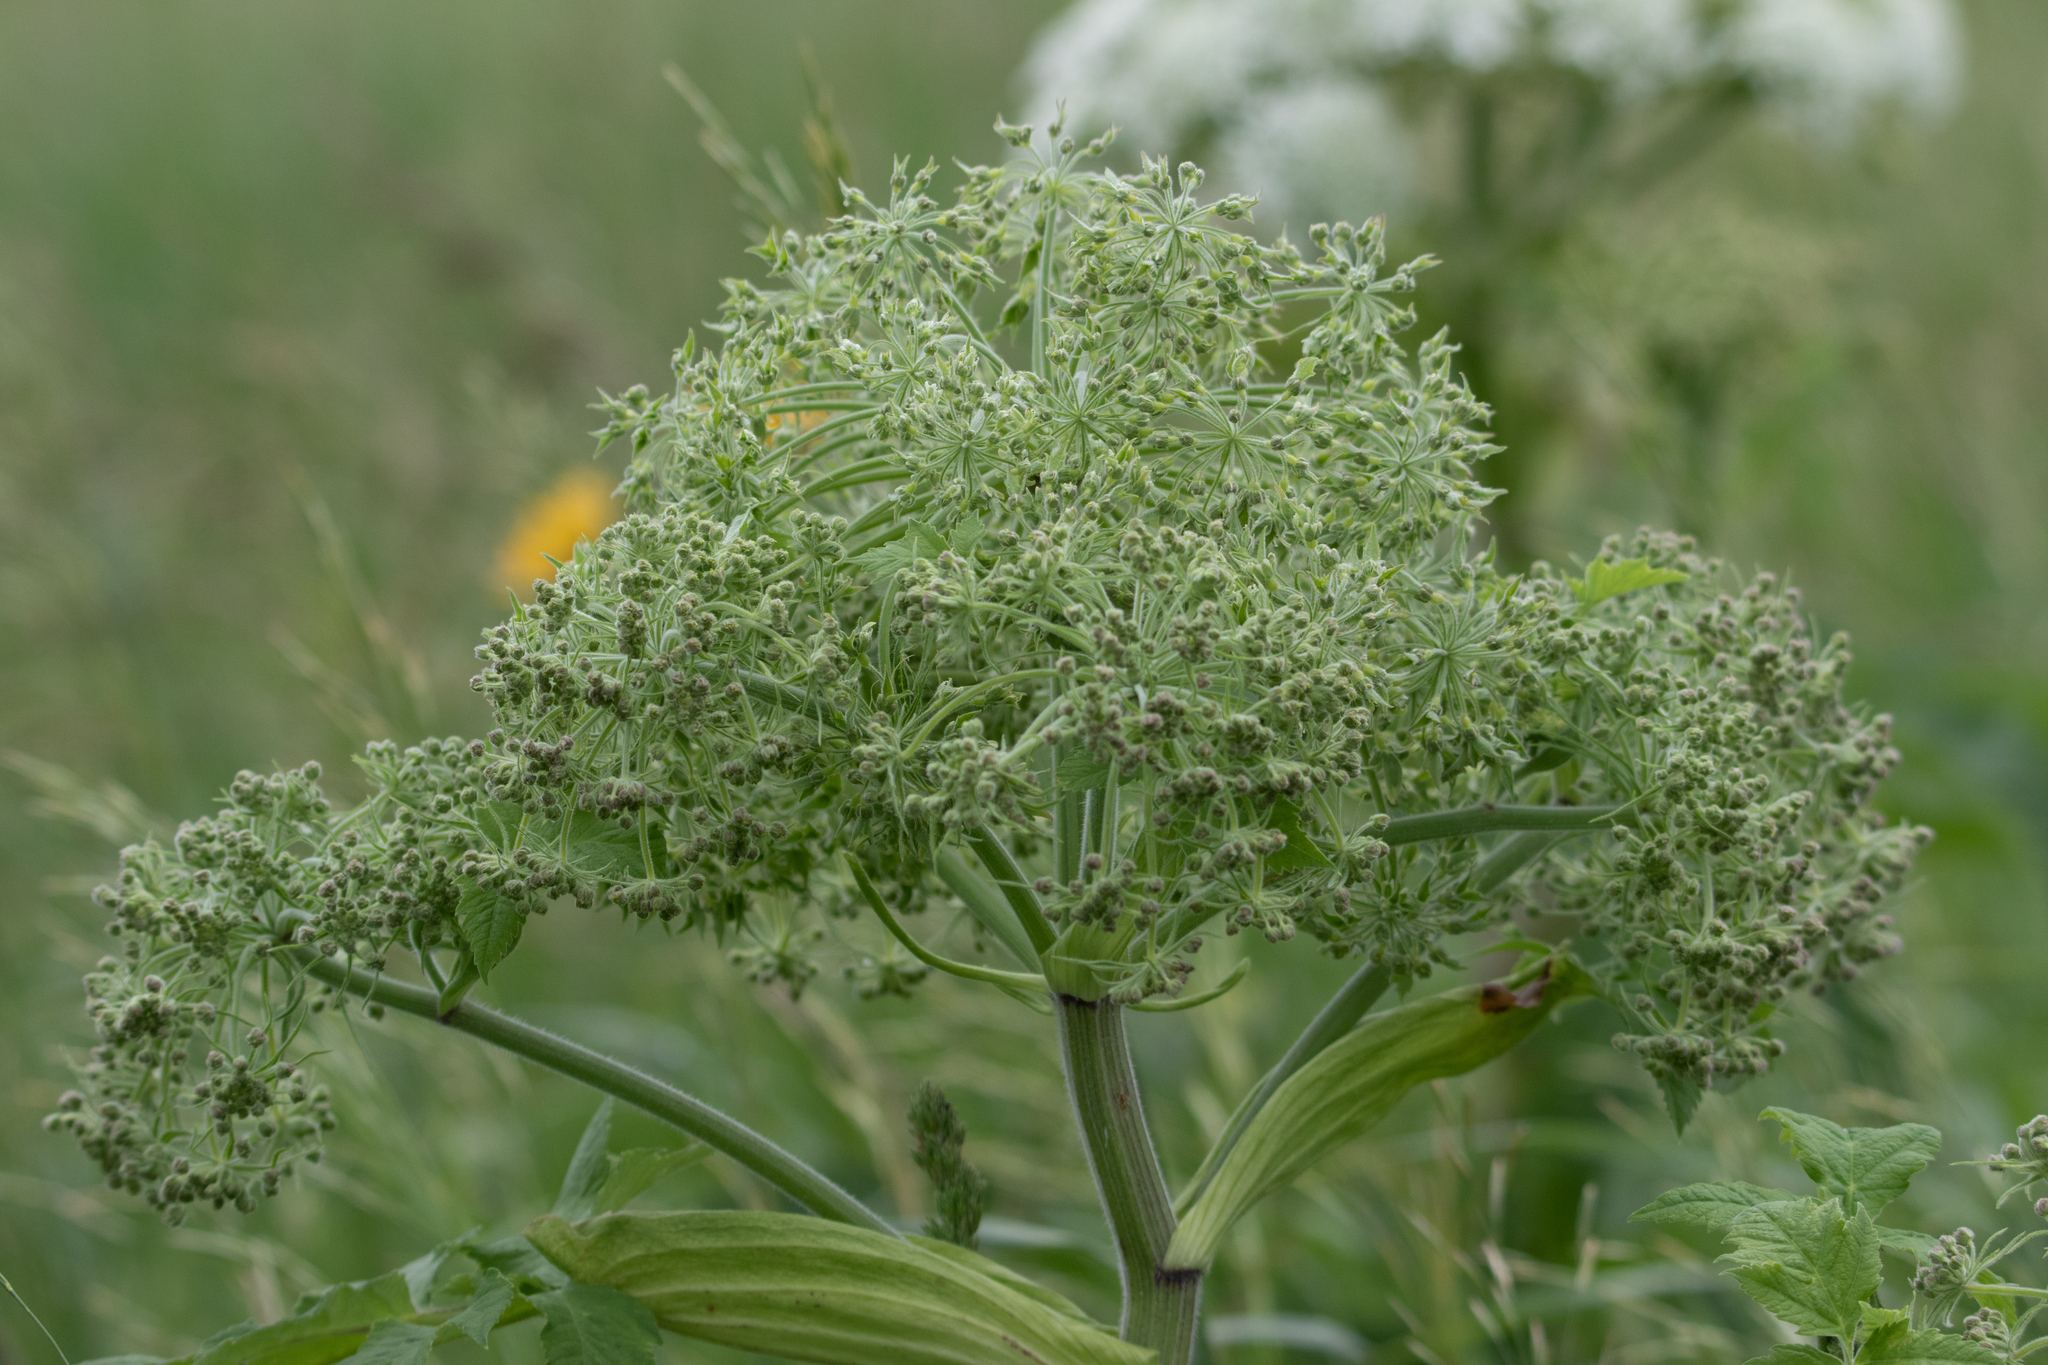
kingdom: Plantae
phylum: Tracheophyta
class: Magnoliopsida
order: Apiales
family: Apiaceae
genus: Heracleum
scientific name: Heracleum dissectum
